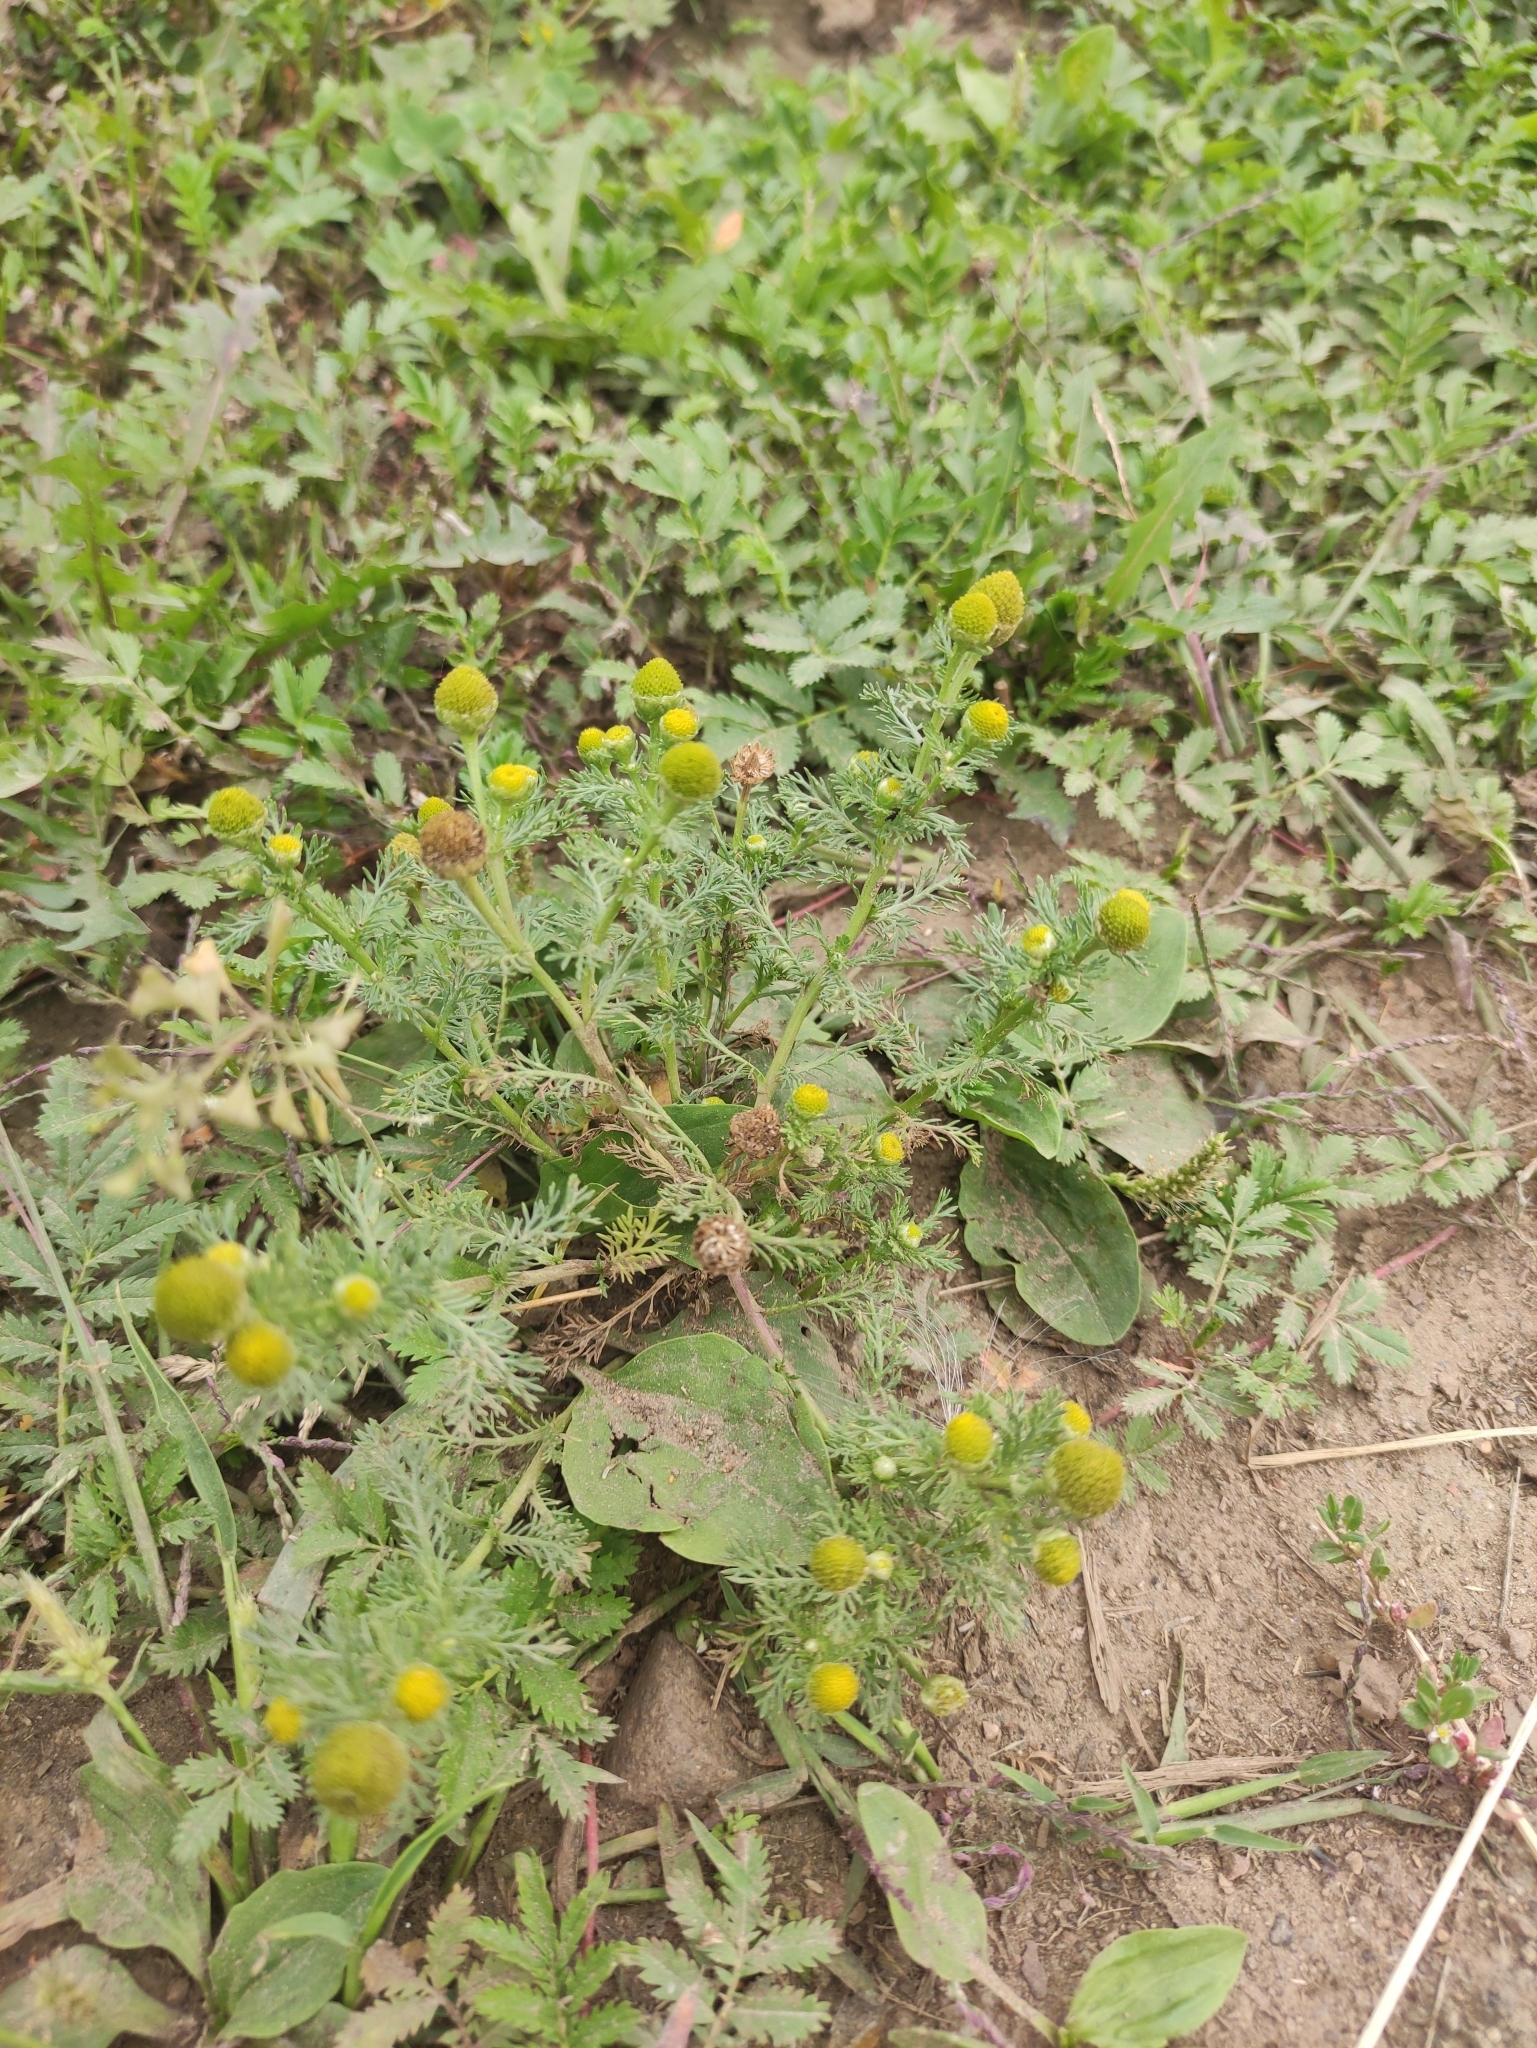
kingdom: Plantae
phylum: Tracheophyta
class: Magnoliopsida
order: Asterales
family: Asteraceae
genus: Matricaria
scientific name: Matricaria discoidea
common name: Disc mayweed
